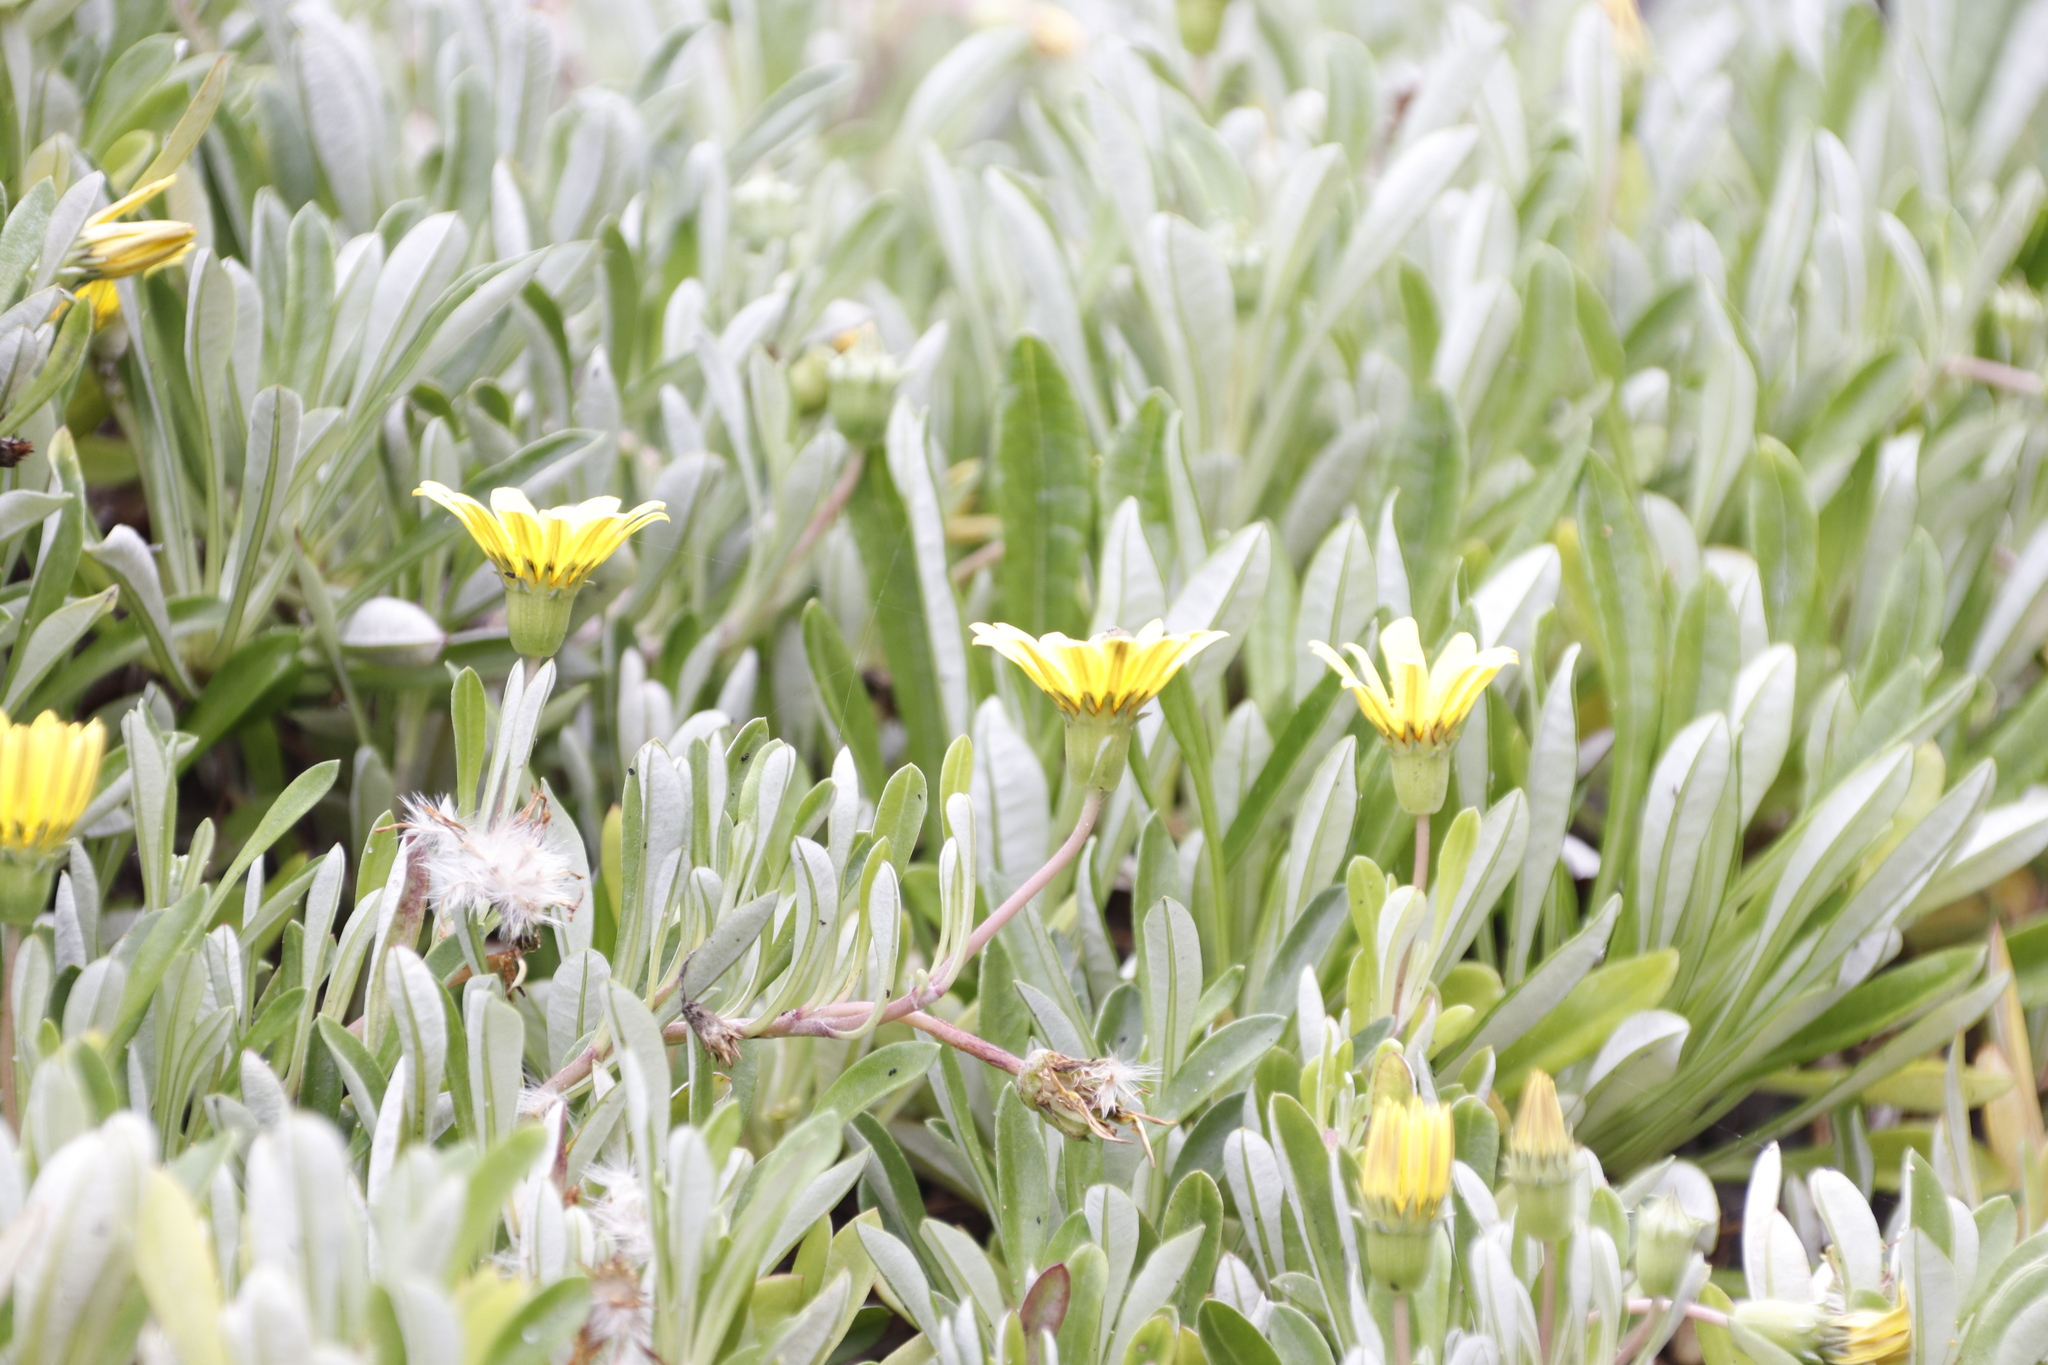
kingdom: Plantae
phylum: Tracheophyta
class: Magnoliopsida
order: Asterales
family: Asteraceae
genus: Gazania
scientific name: Gazania rigens
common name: Treasureflower
